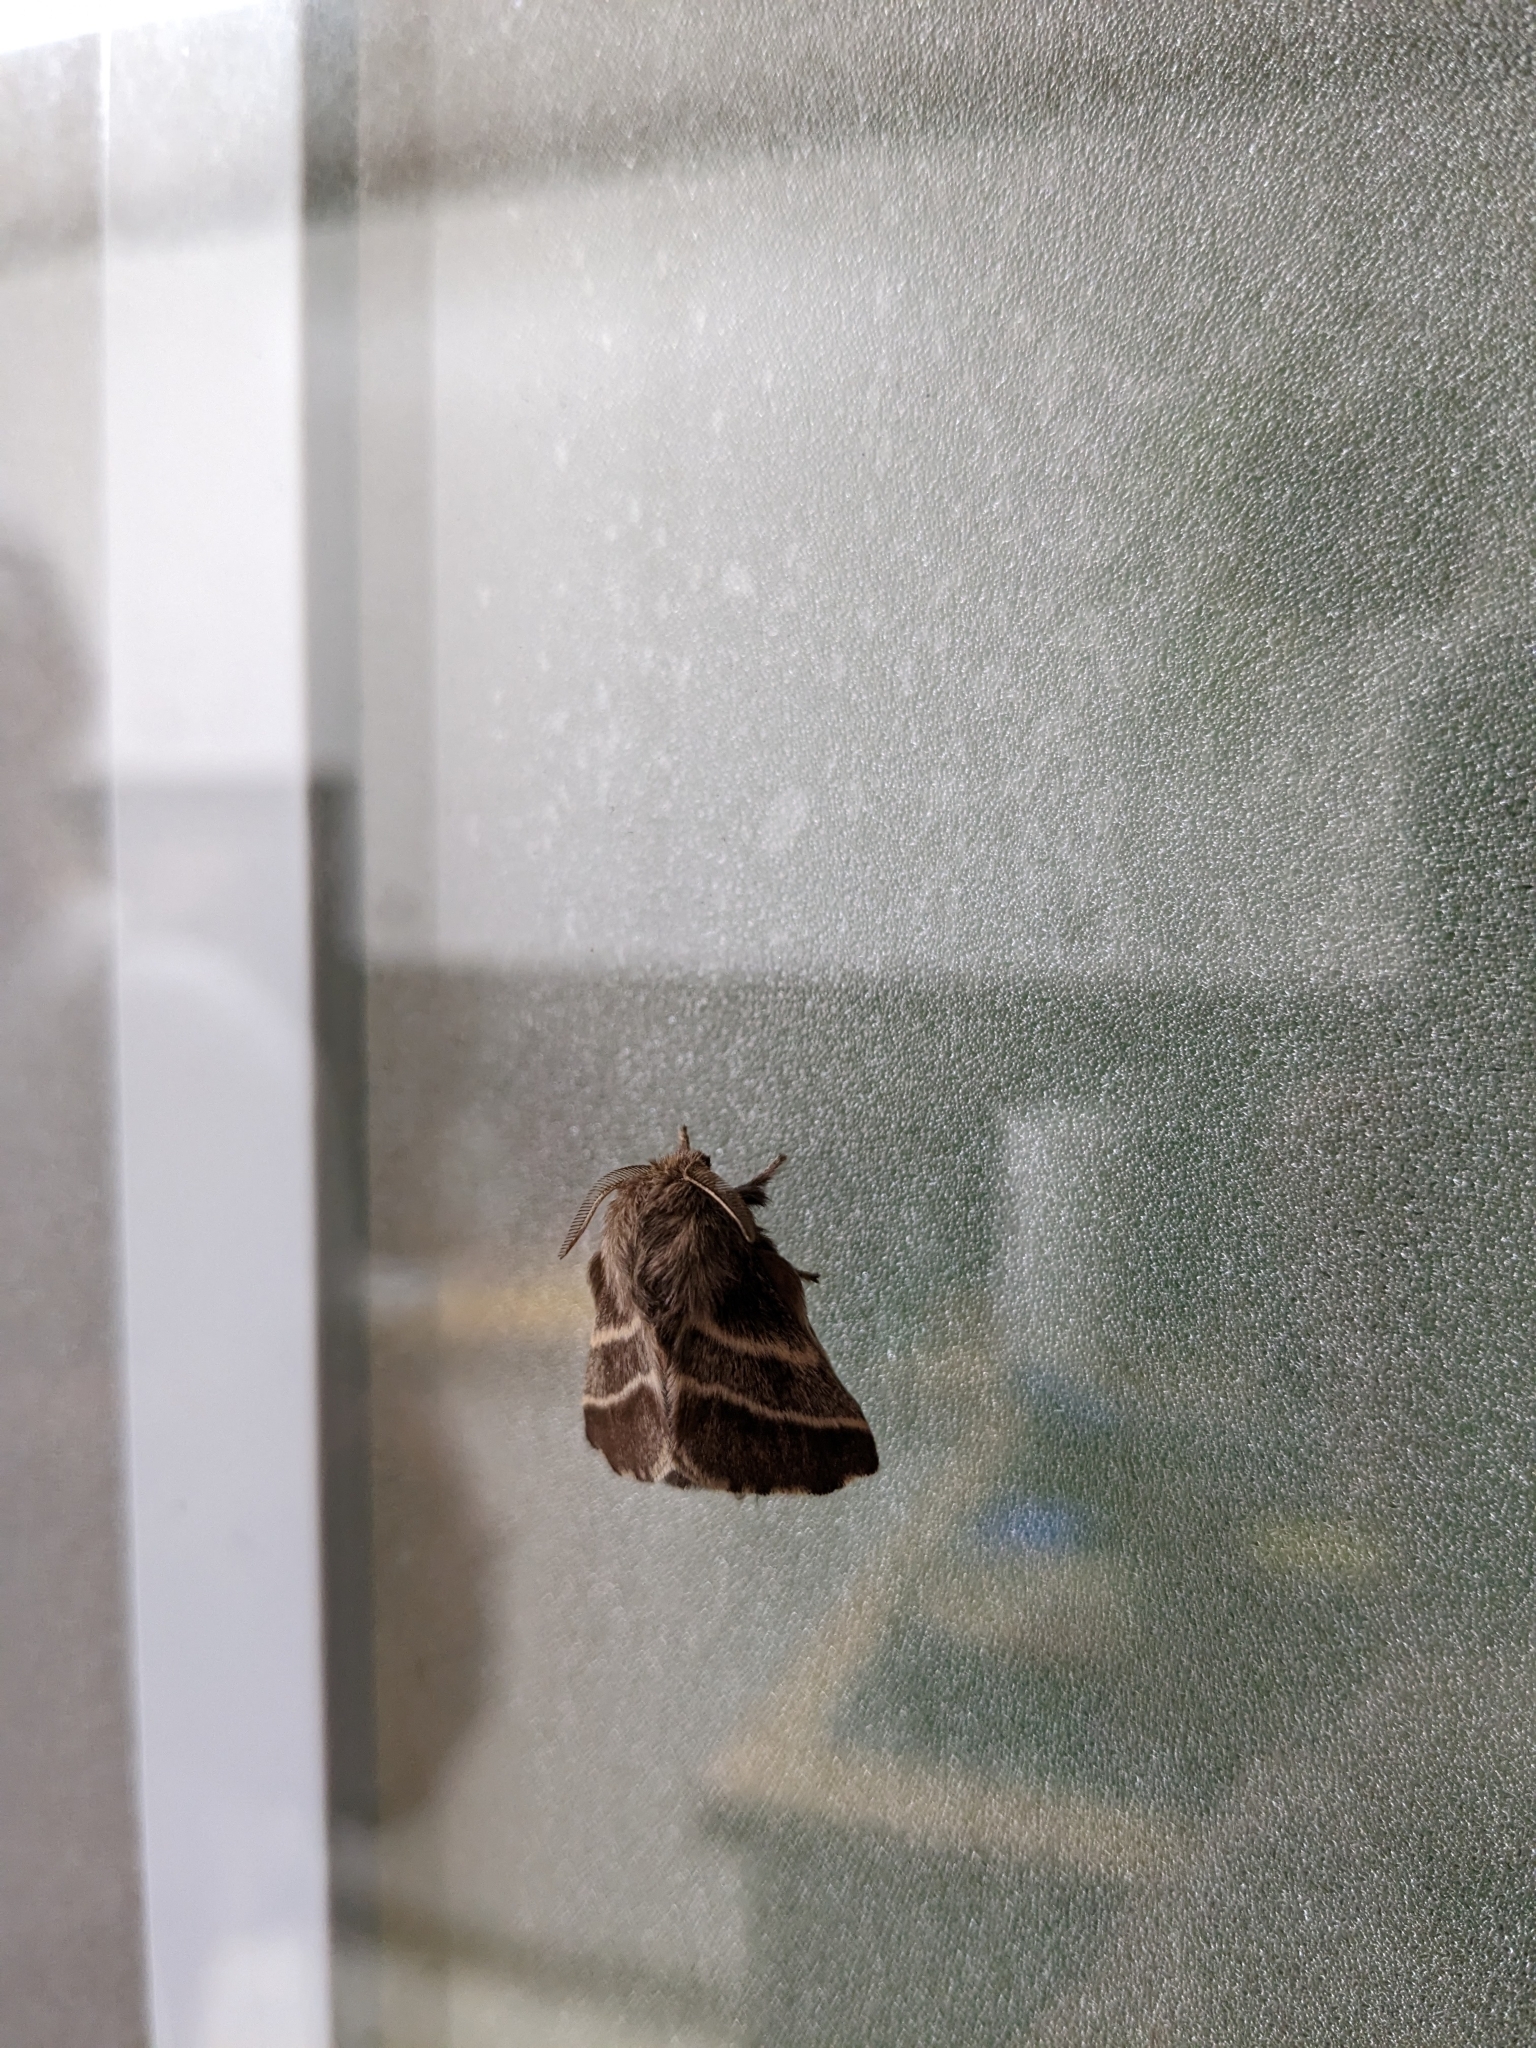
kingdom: Animalia
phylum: Arthropoda
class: Insecta
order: Lepidoptera
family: Lasiocampidae
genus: Malacosoma
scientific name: Malacosoma americana
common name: Eastern tent caterpillar moth
